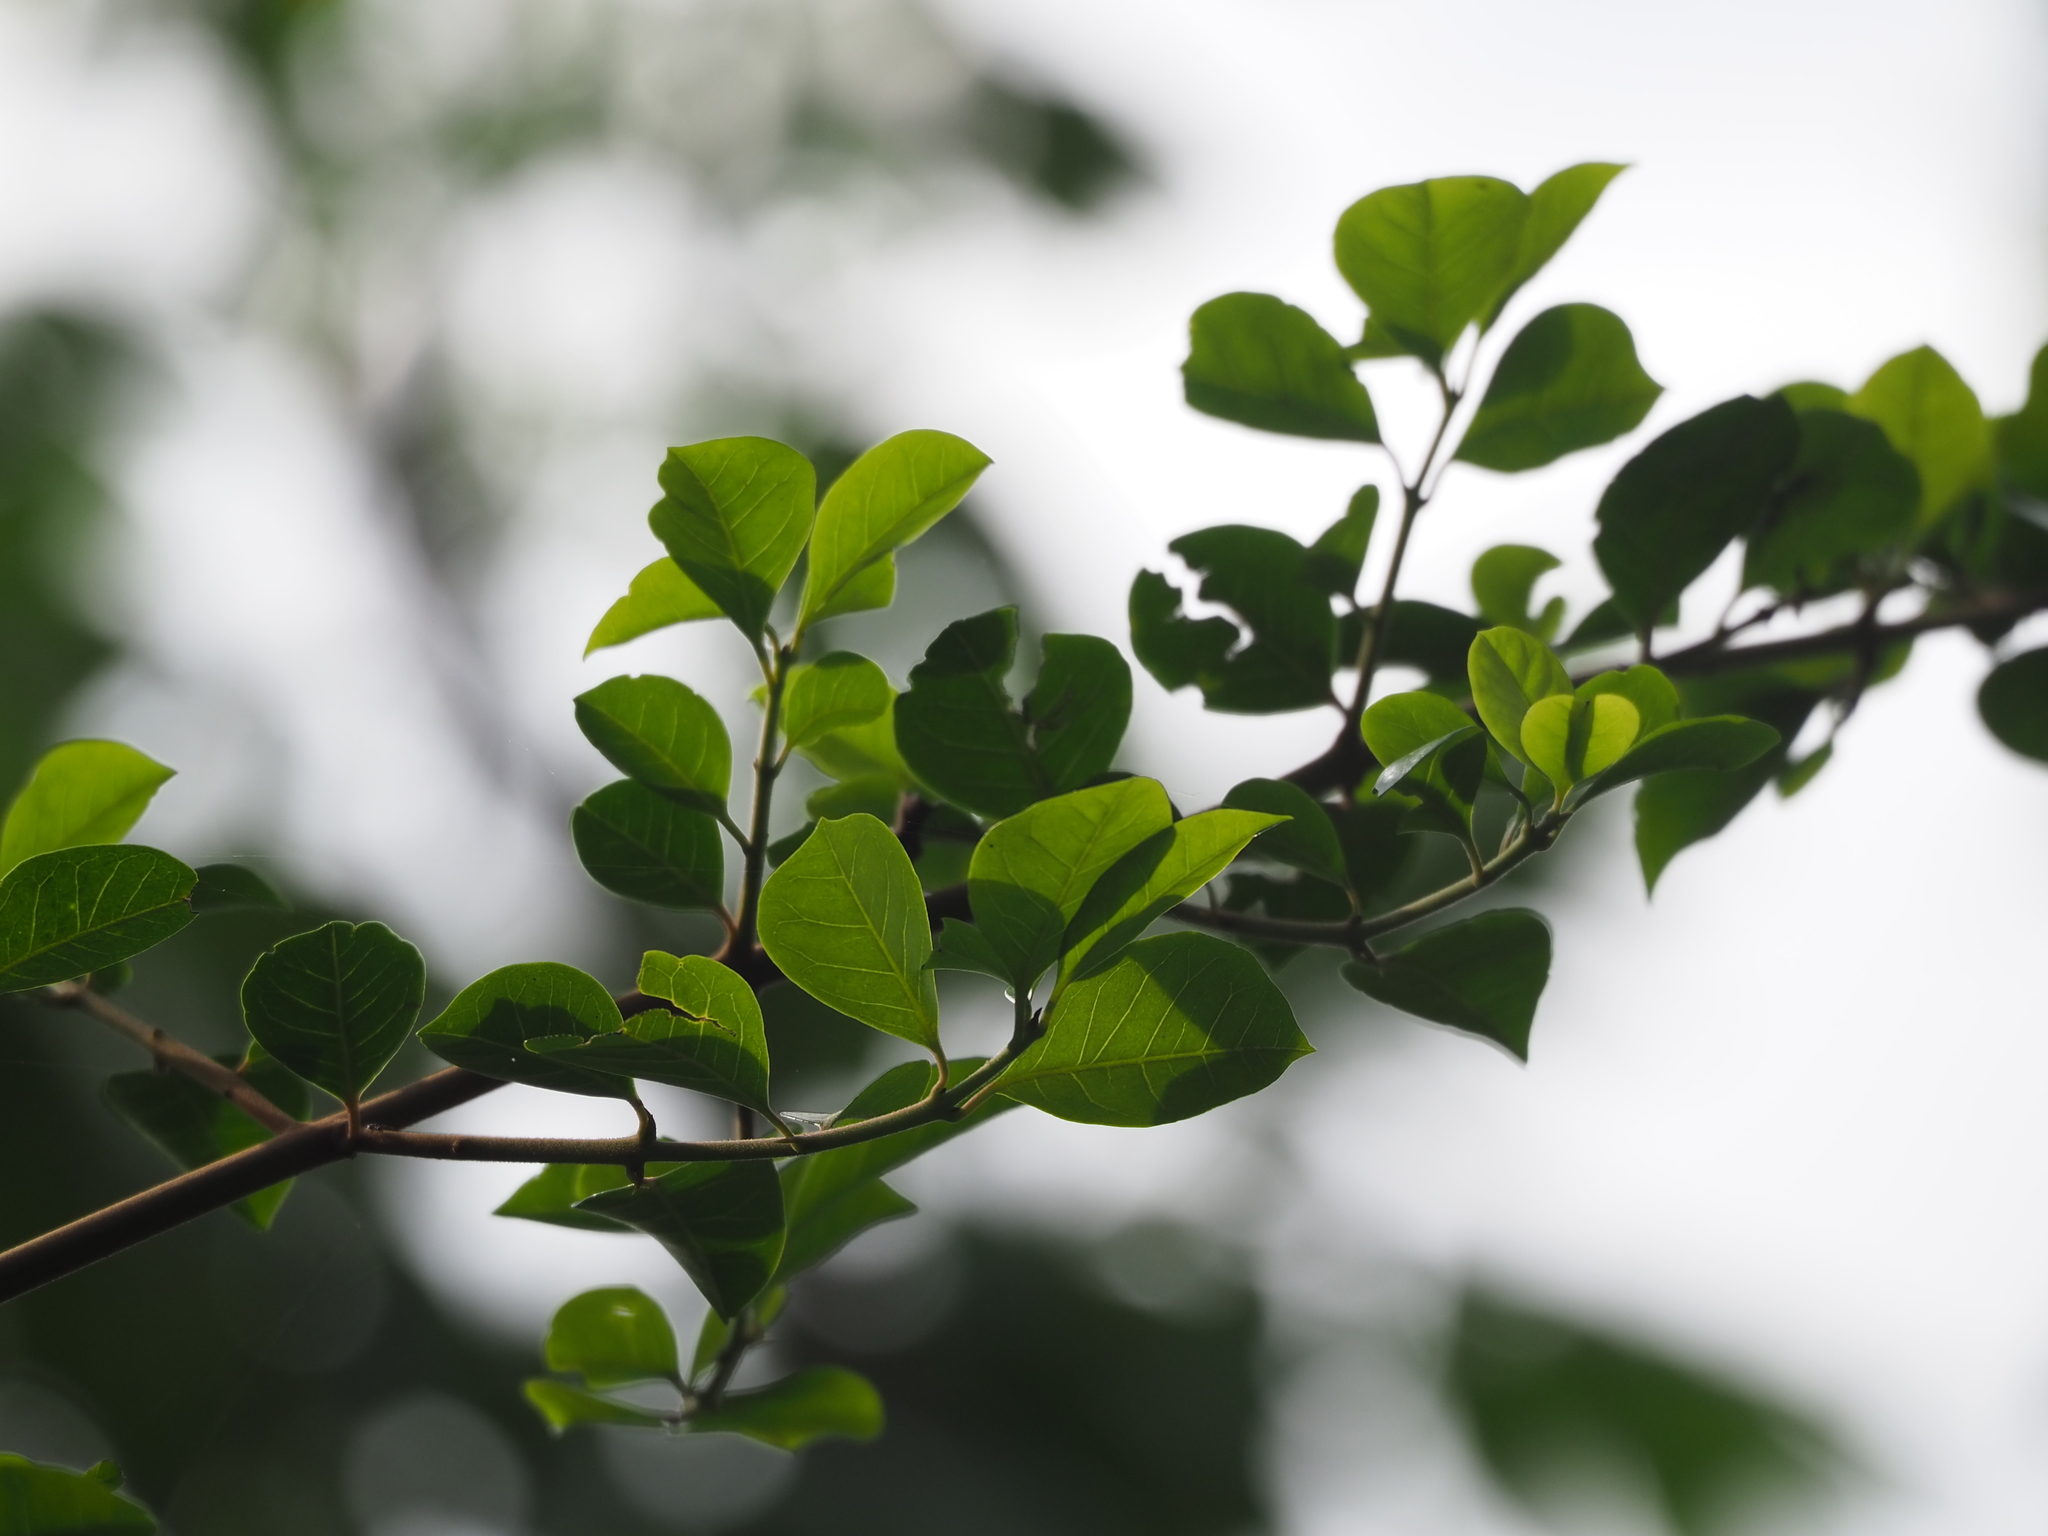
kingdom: Plantae
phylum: Tracheophyta
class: Magnoliopsida
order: Caryophyllales
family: Nyctaginaceae
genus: Pisonia
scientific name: Pisonia aculeata
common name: Cockspur vine
